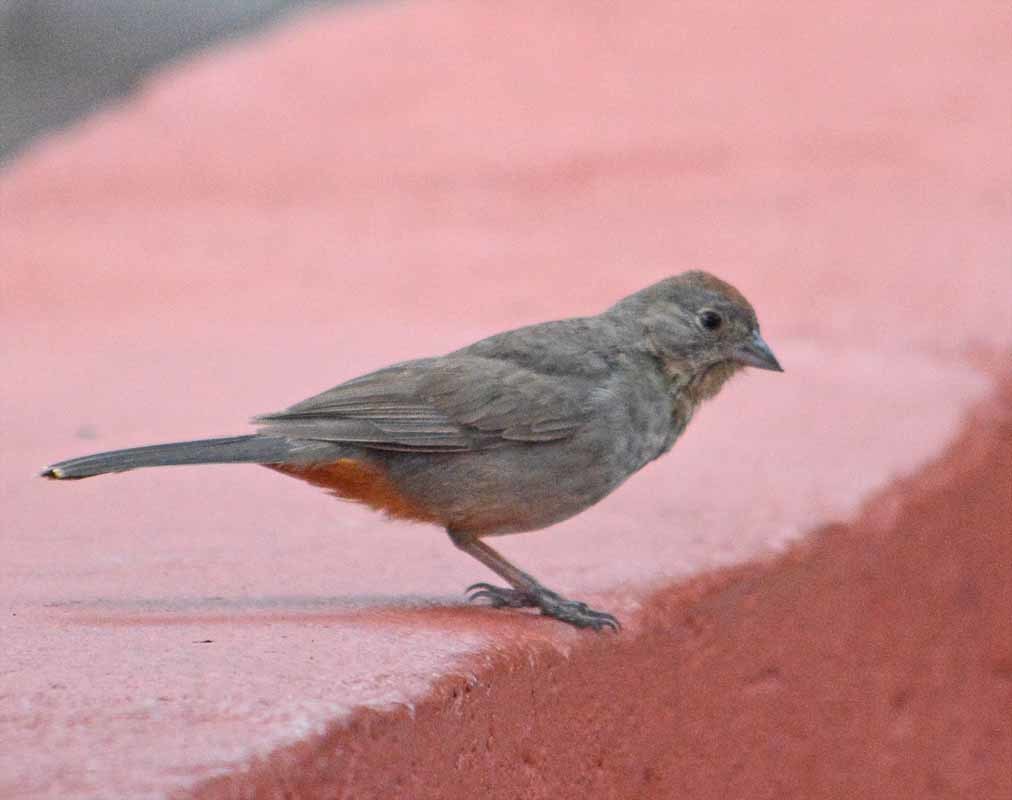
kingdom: Animalia
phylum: Chordata
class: Aves
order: Passeriformes
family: Passerellidae
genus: Melozone
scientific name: Melozone fusca
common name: Canyon towhee
